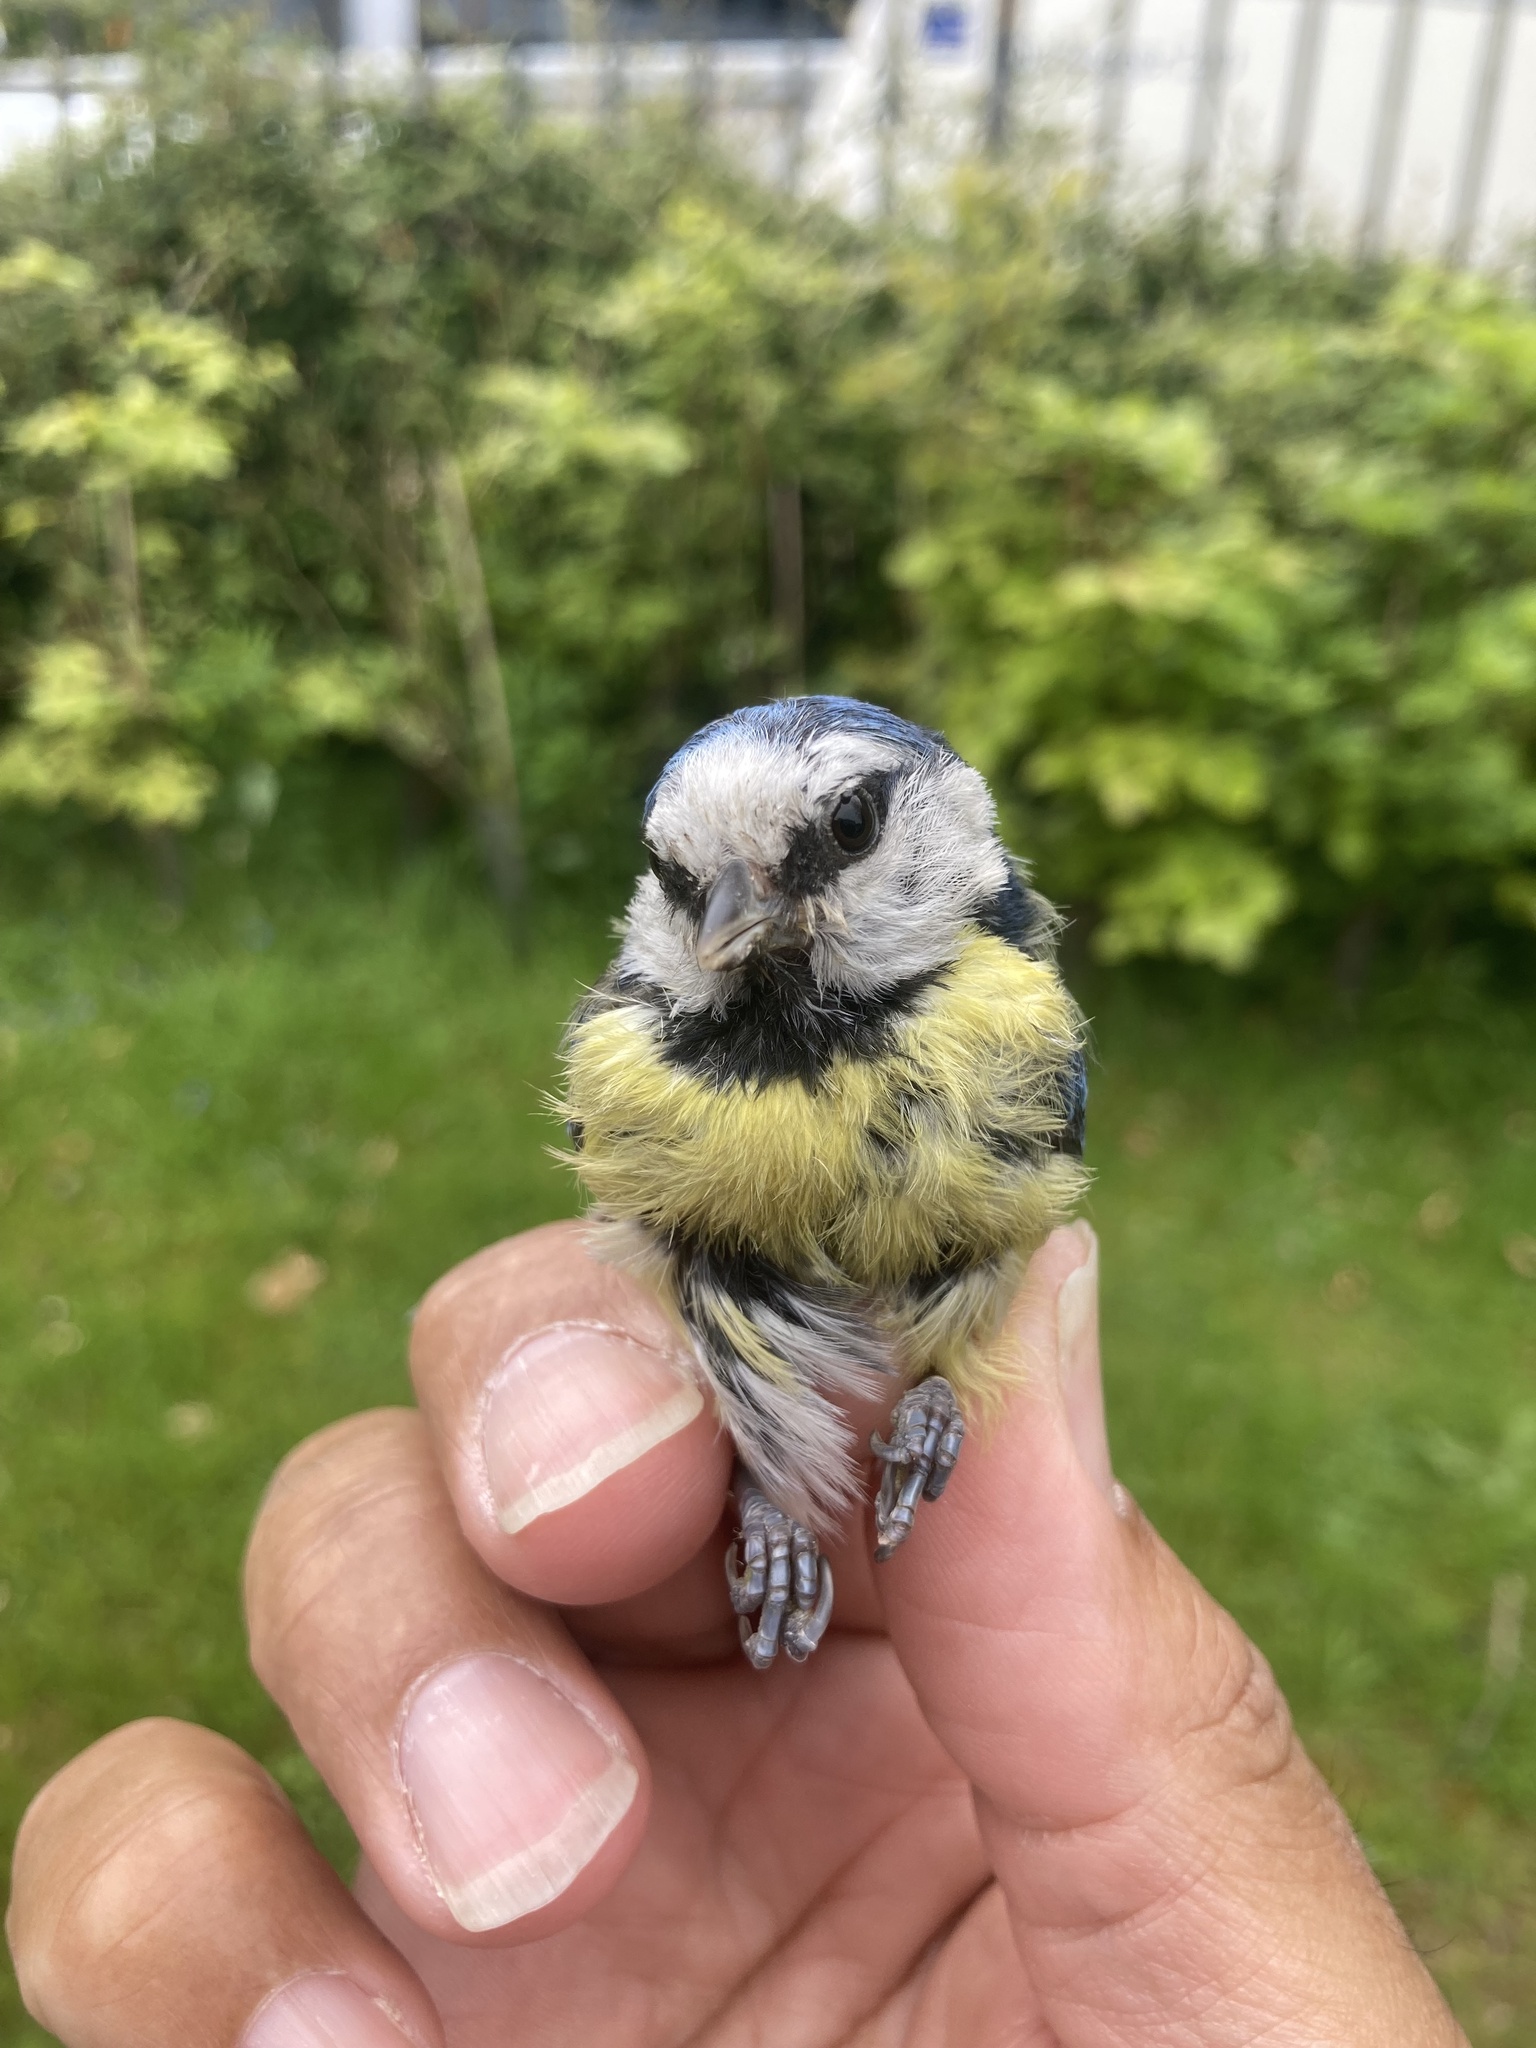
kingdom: Animalia
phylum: Chordata
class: Aves
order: Passeriformes
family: Paridae
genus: Cyanistes
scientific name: Cyanistes caeruleus
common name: Eurasian blue tit
